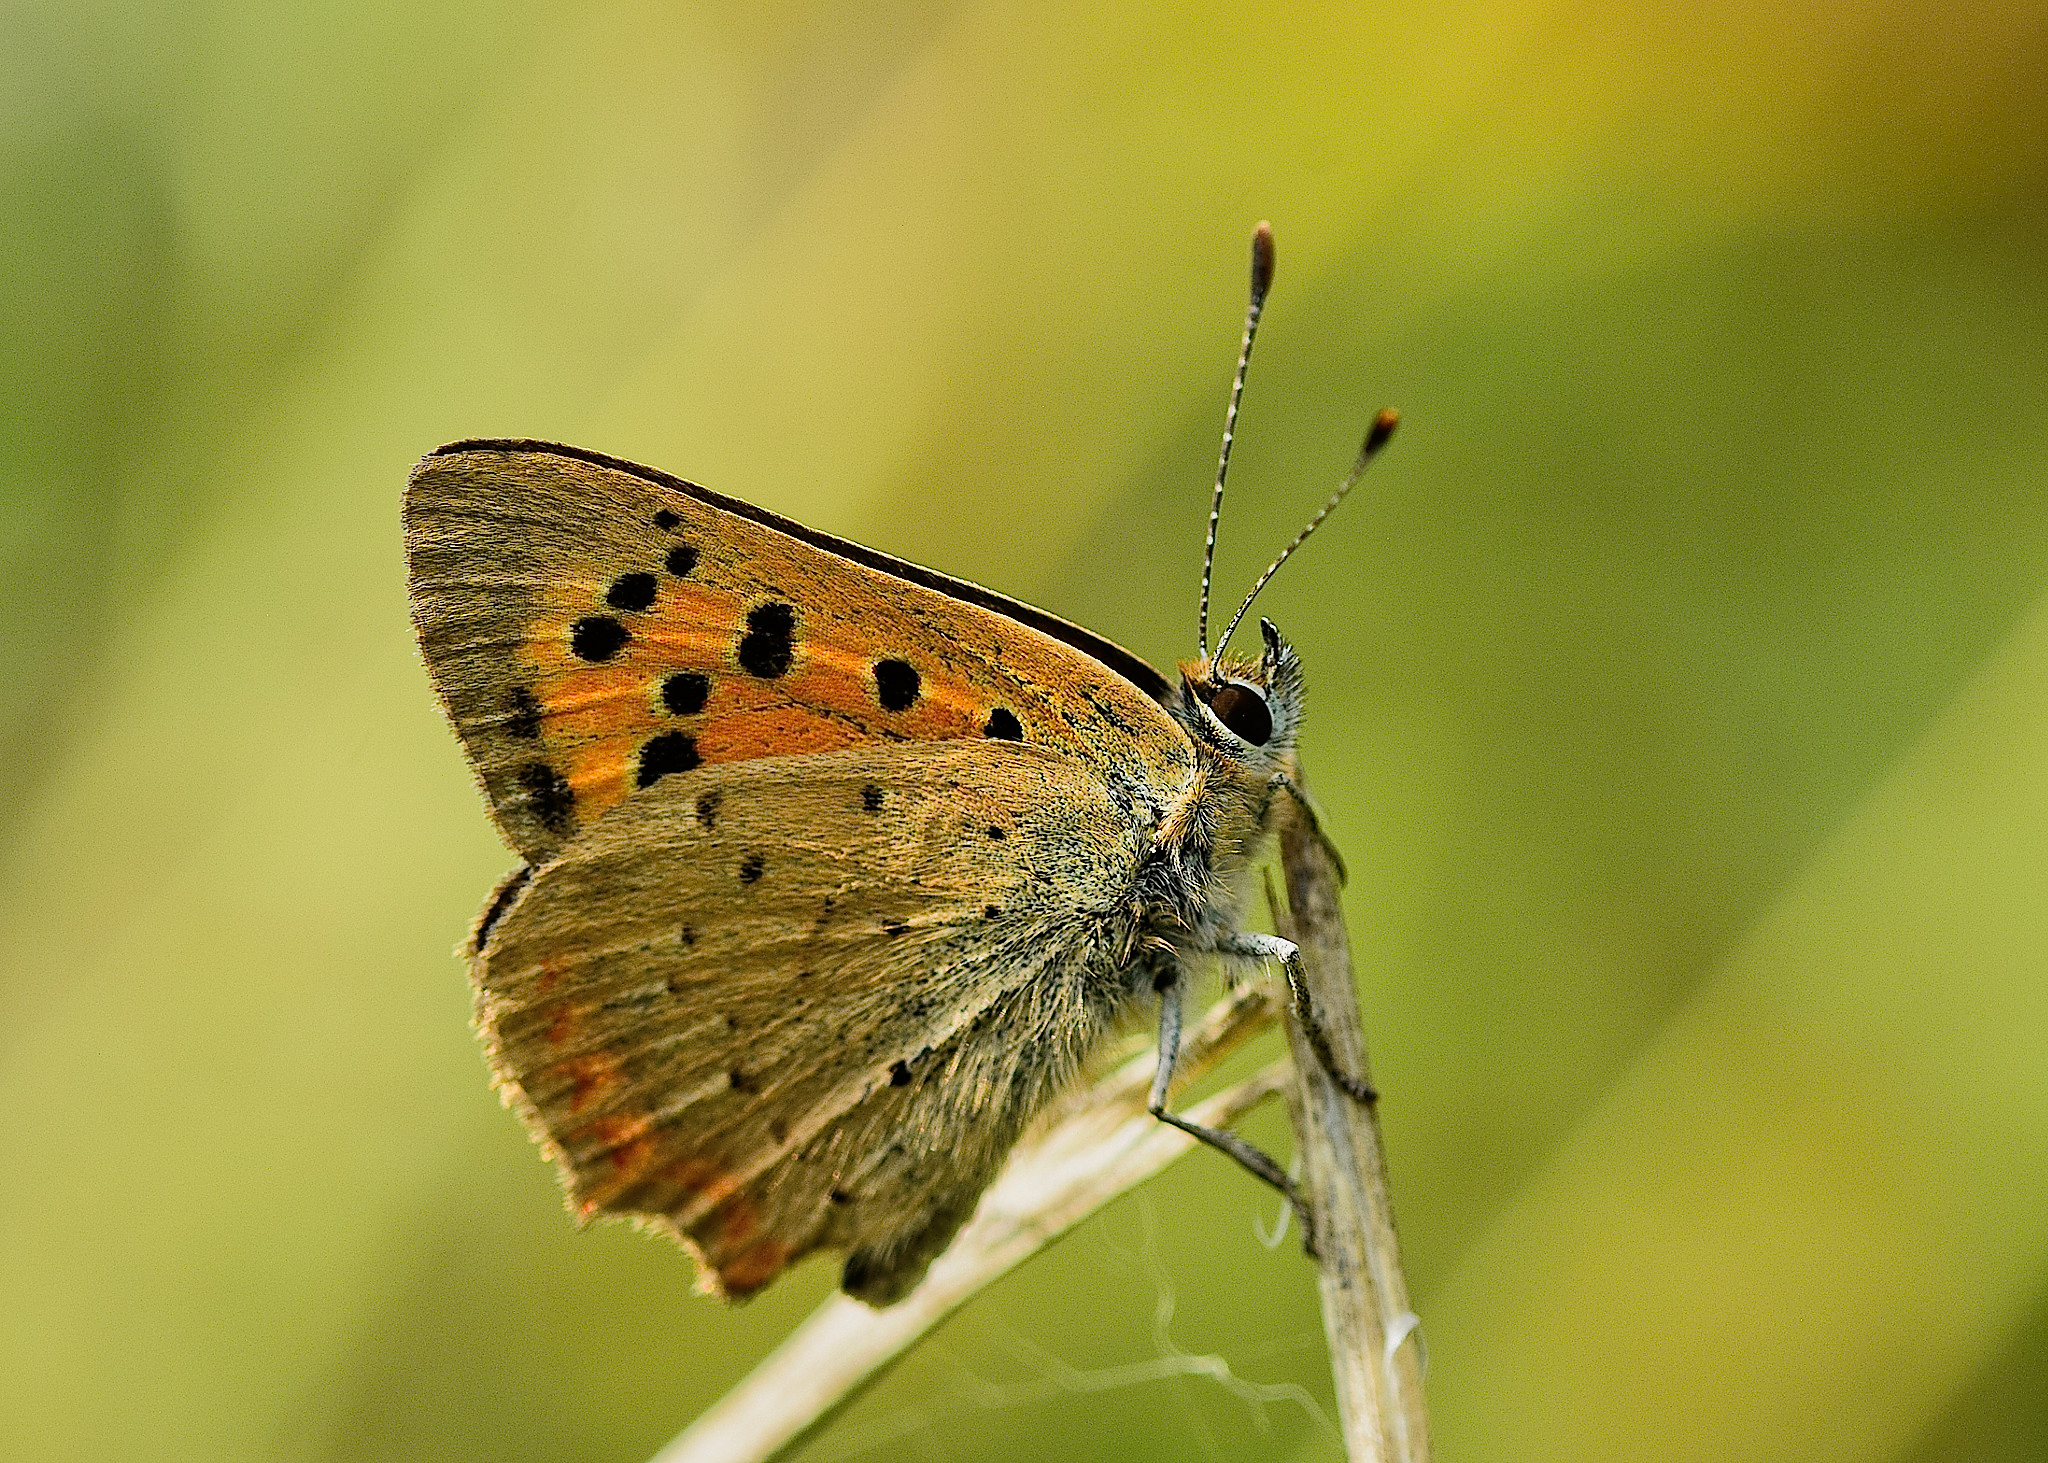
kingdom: Animalia
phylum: Arthropoda
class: Insecta
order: Lepidoptera
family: Lycaenidae
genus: Lycaena
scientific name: Lycaena phlaeas
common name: Small copper
